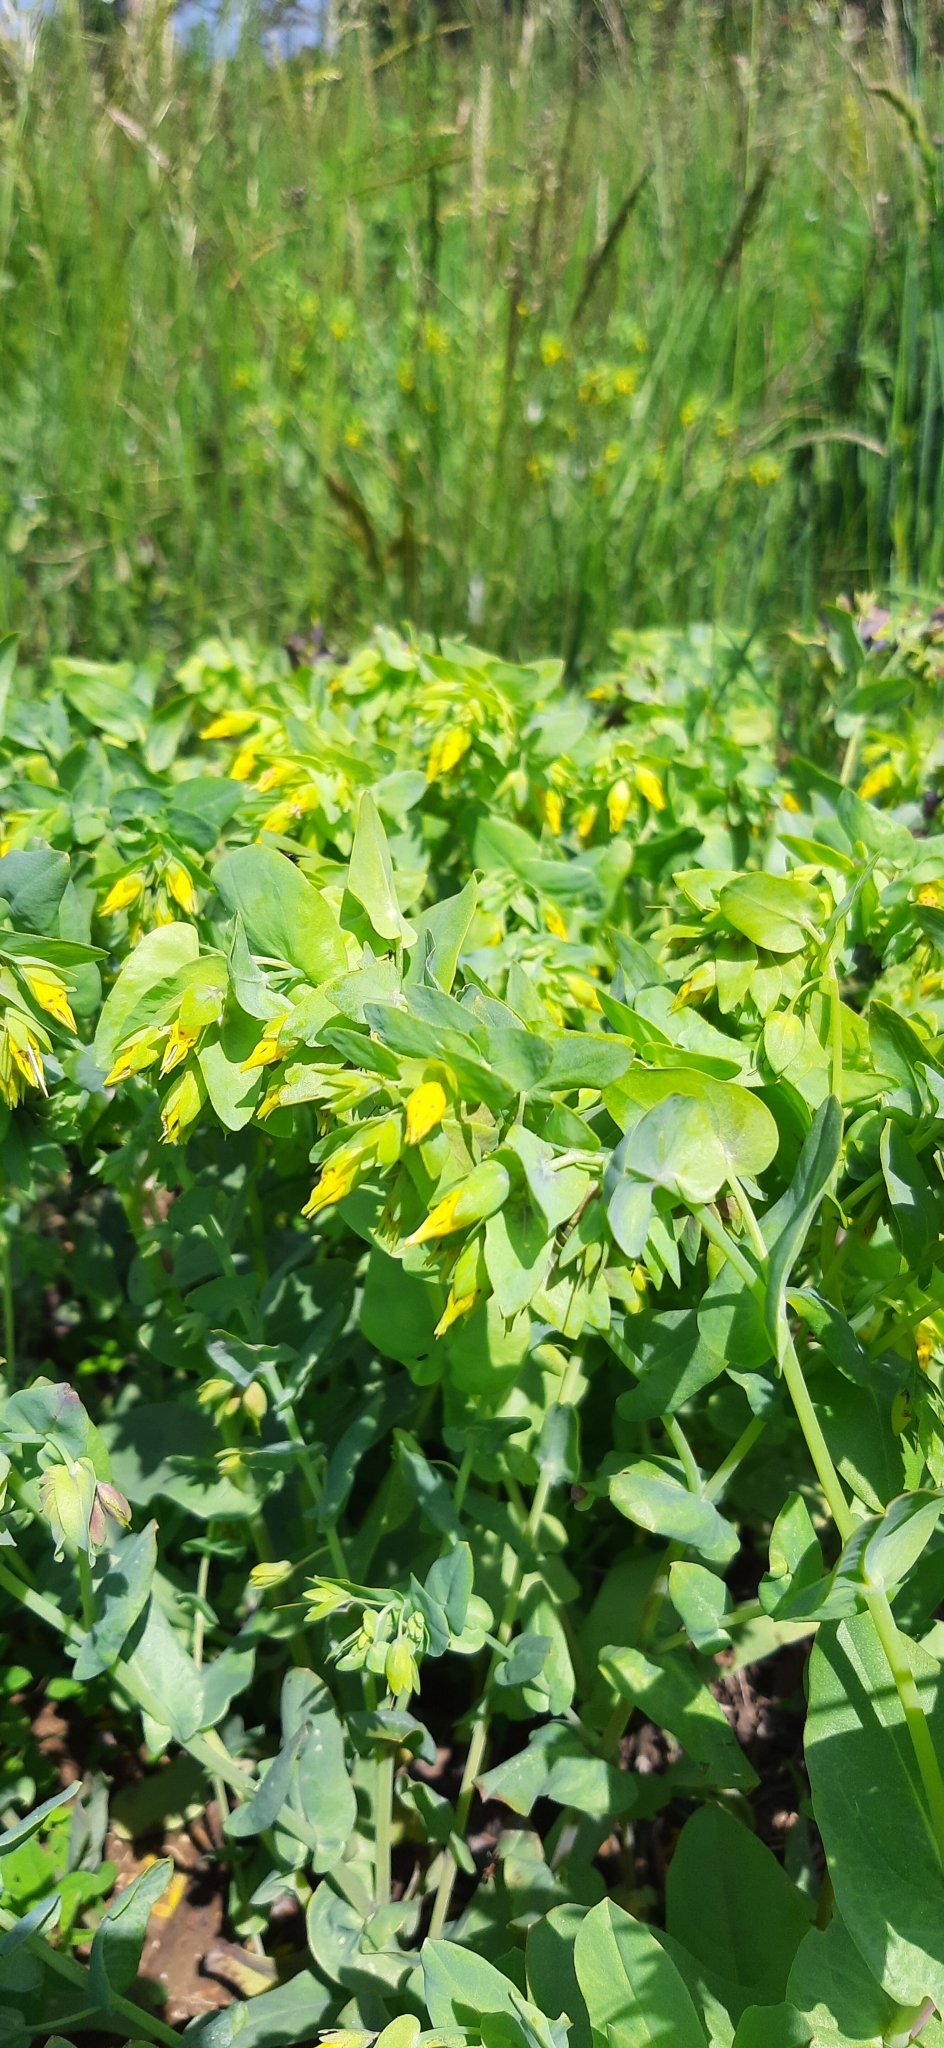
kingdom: Plantae
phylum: Tracheophyta
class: Magnoliopsida
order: Boraginales
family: Boraginaceae
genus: Cerinthe
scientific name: Cerinthe minor
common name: Lesser honeywort
